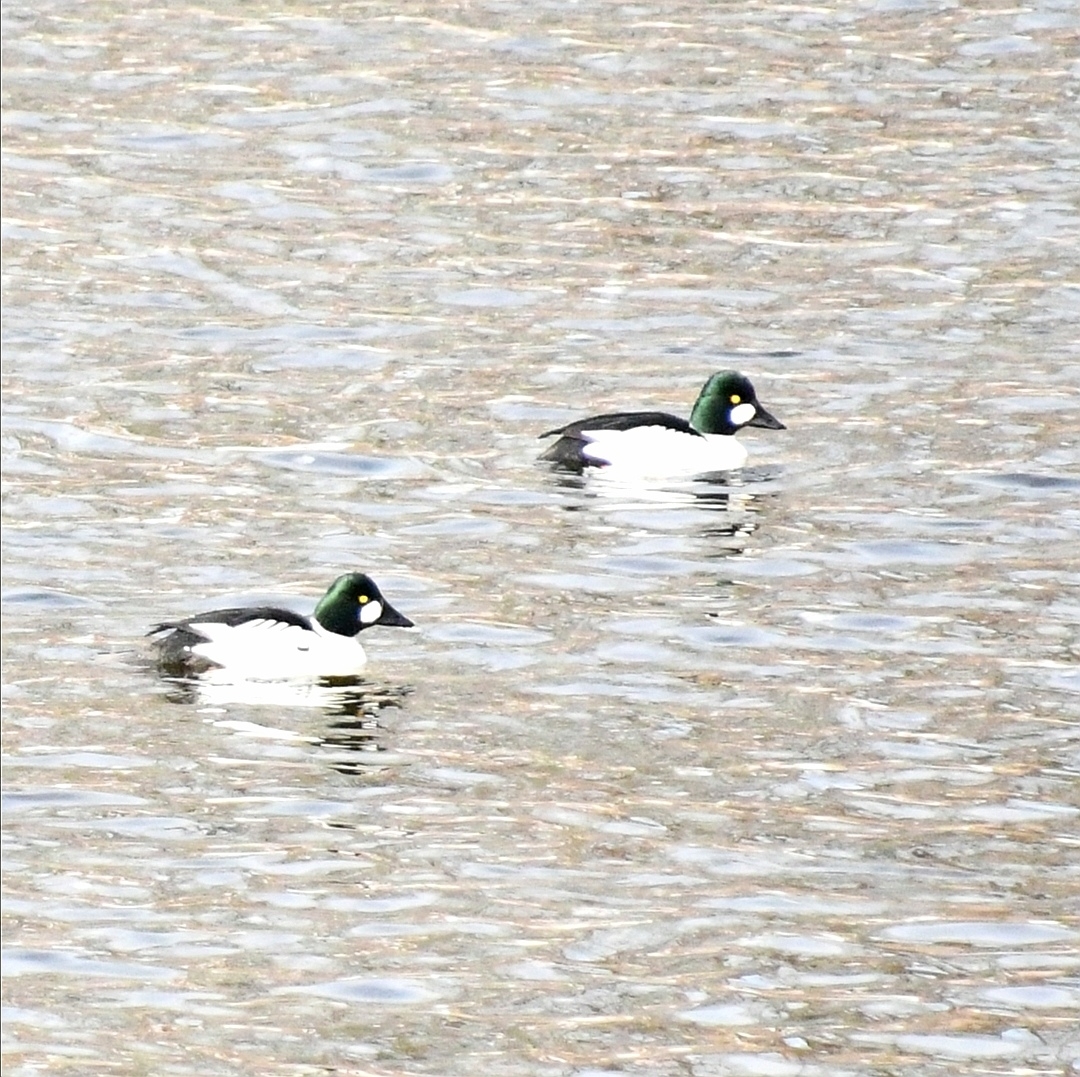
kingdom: Animalia
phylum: Chordata
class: Aves
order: Anseriformes
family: Anatidae
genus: Bucephala
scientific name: Bucephala clangula
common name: Common goldeneye
